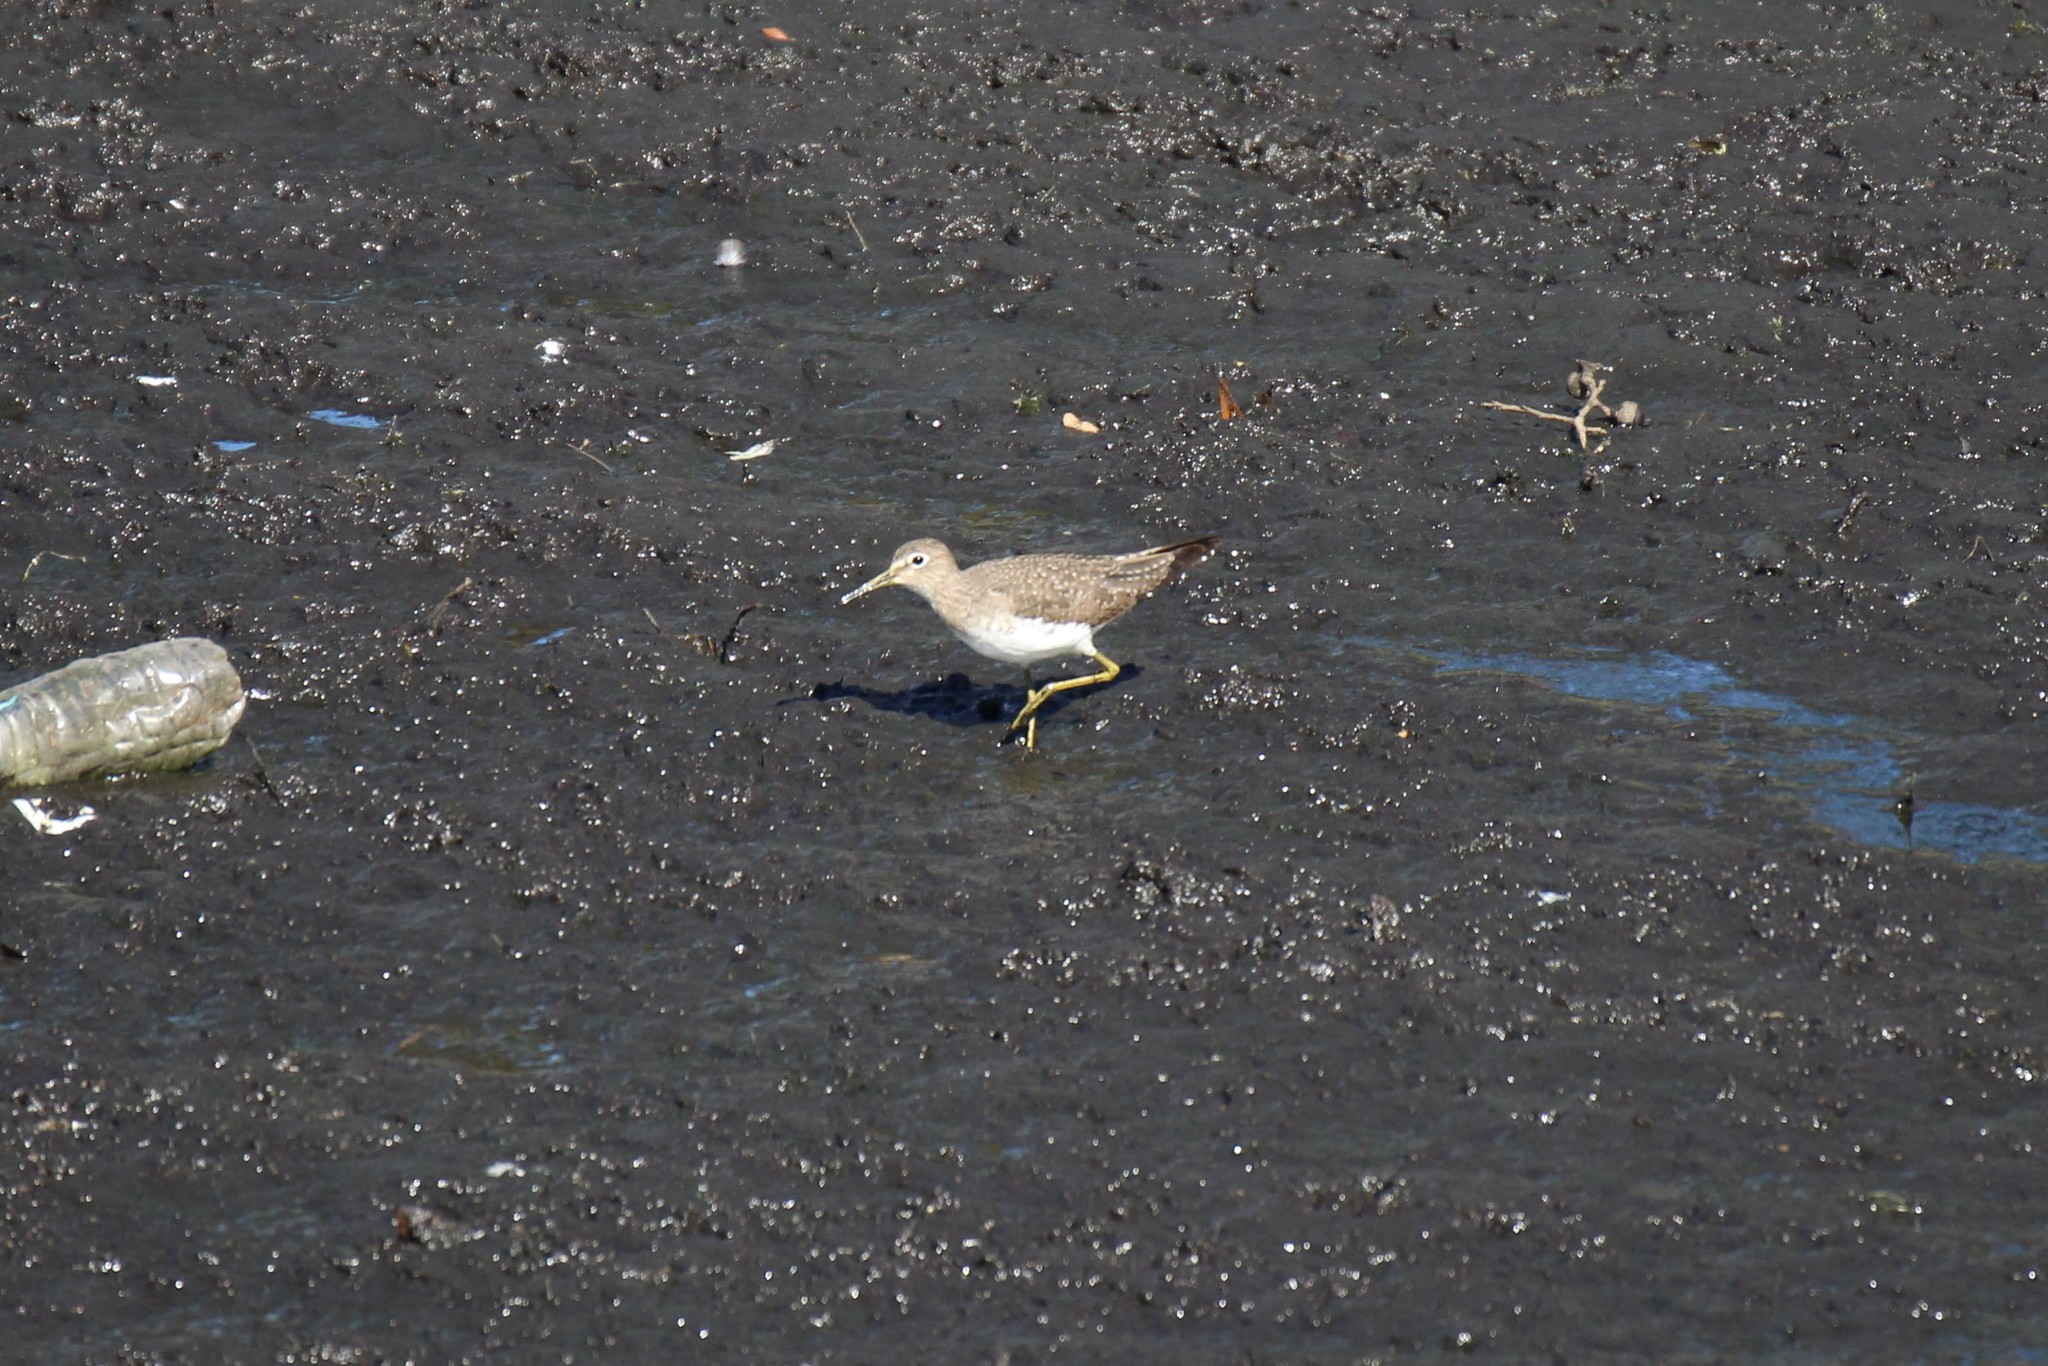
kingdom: Animalia
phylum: Chordata
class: Aves
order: Charadriiformes
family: Scolopacidae
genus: Tringa
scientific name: Tringa solitaria
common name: Solitary sandpiper
